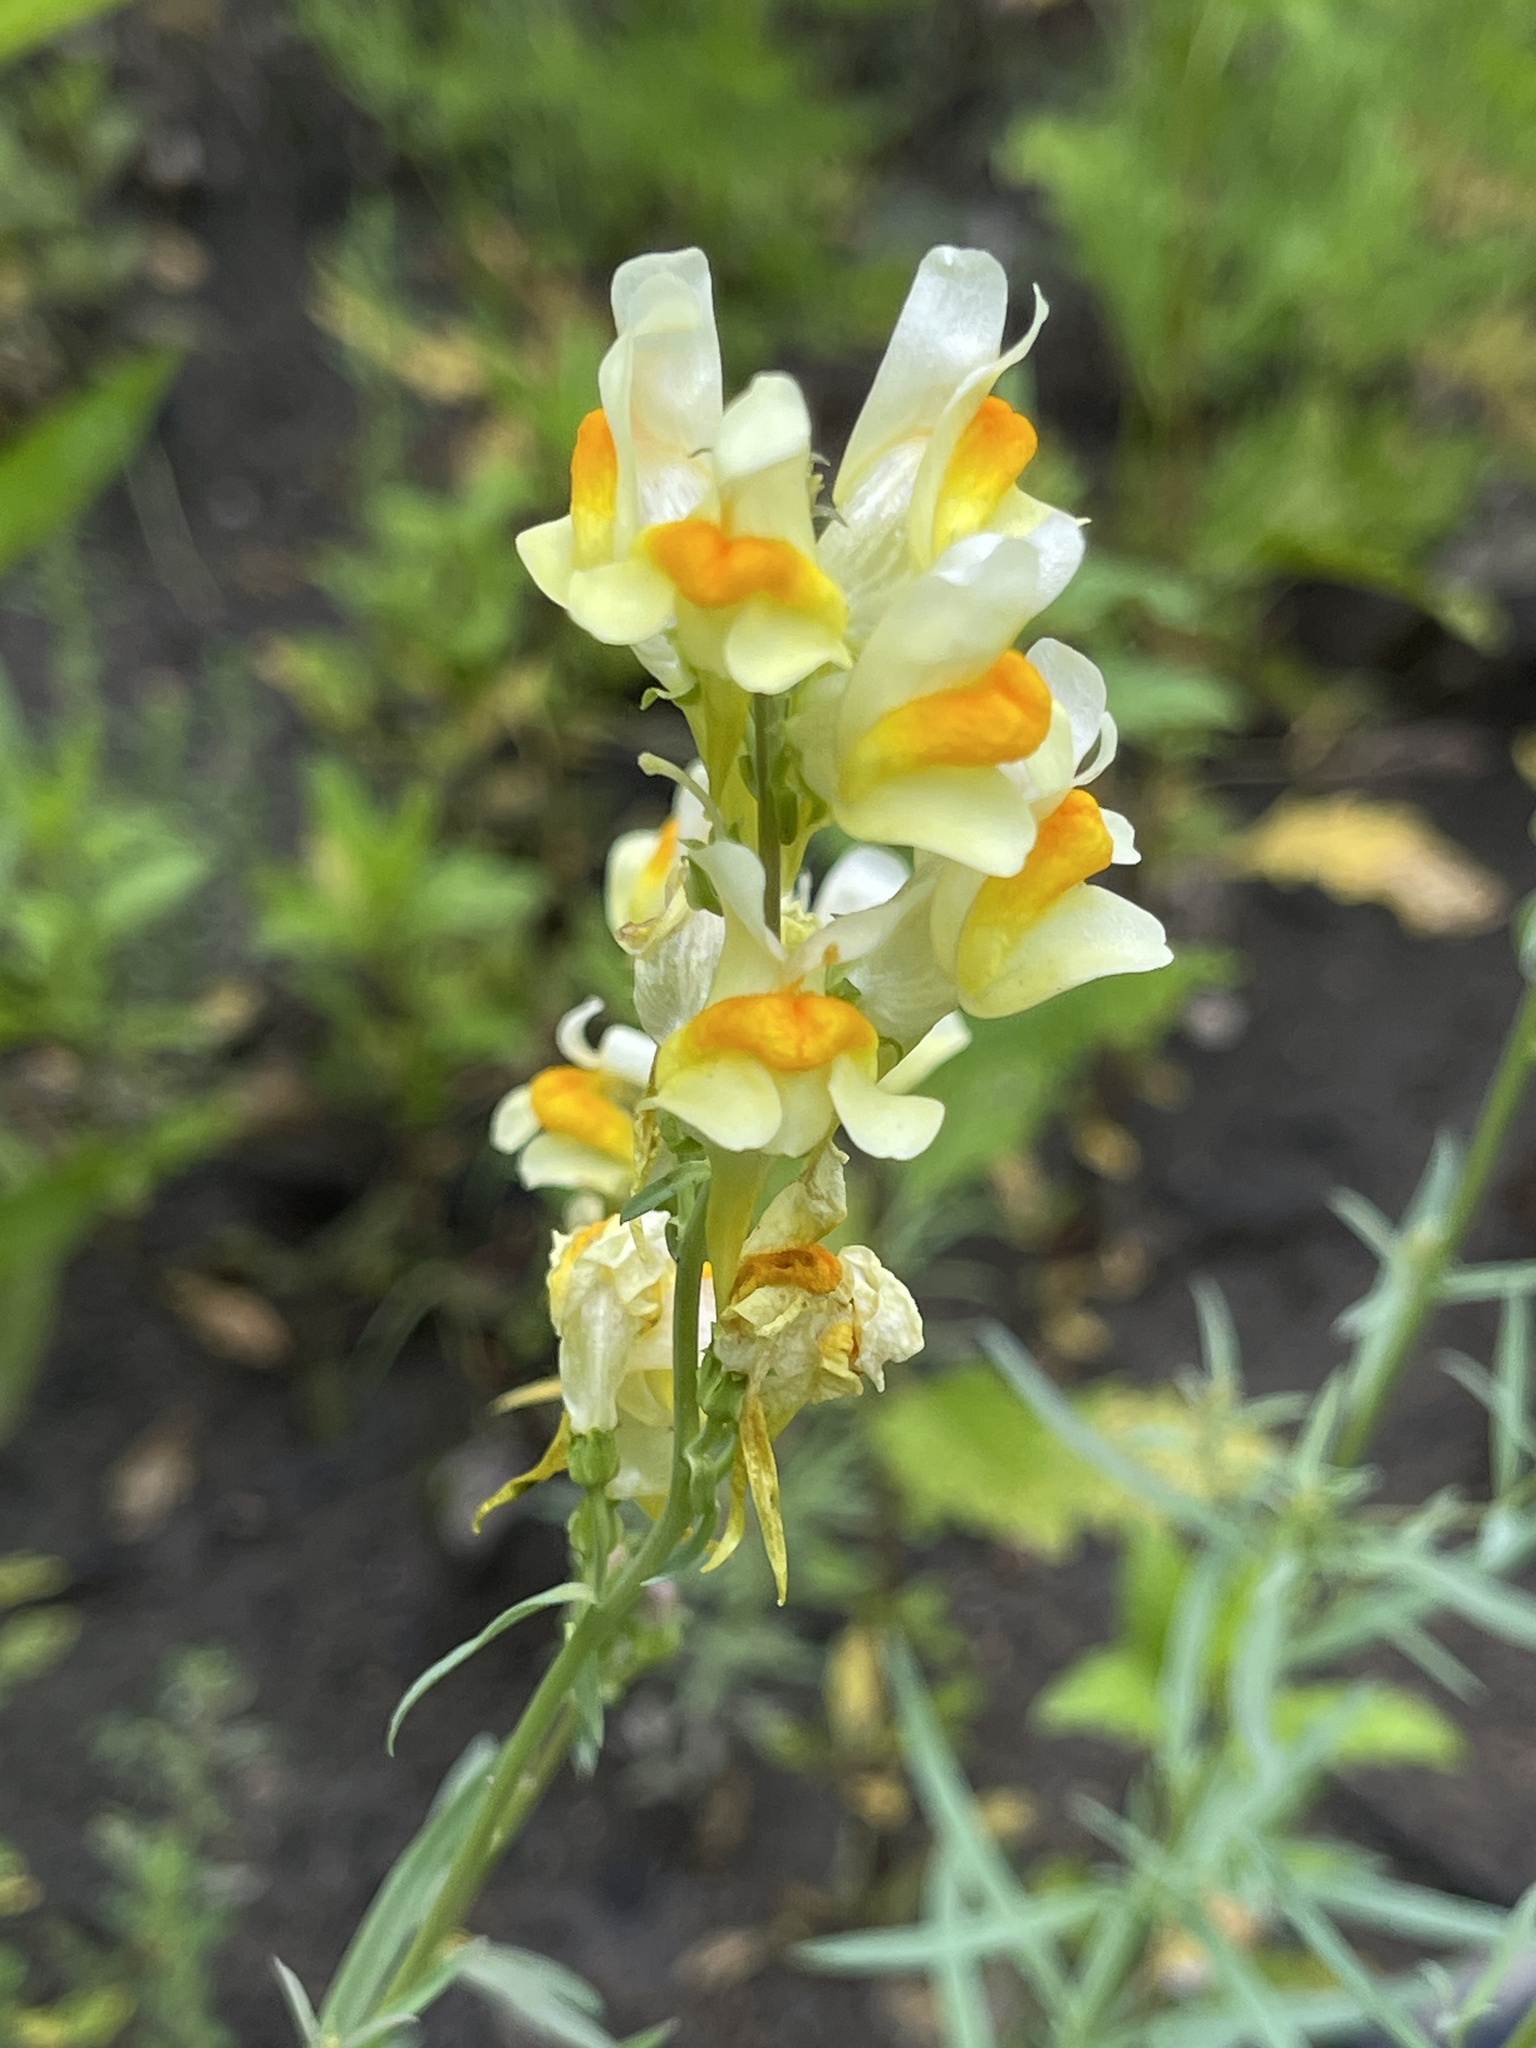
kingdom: Plantae
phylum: Tracheophyta
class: Magnoliopsida
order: Lamiales
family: Plantaginaceae
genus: Linaria
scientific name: Linaria vulgaris
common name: Butter and eggs
